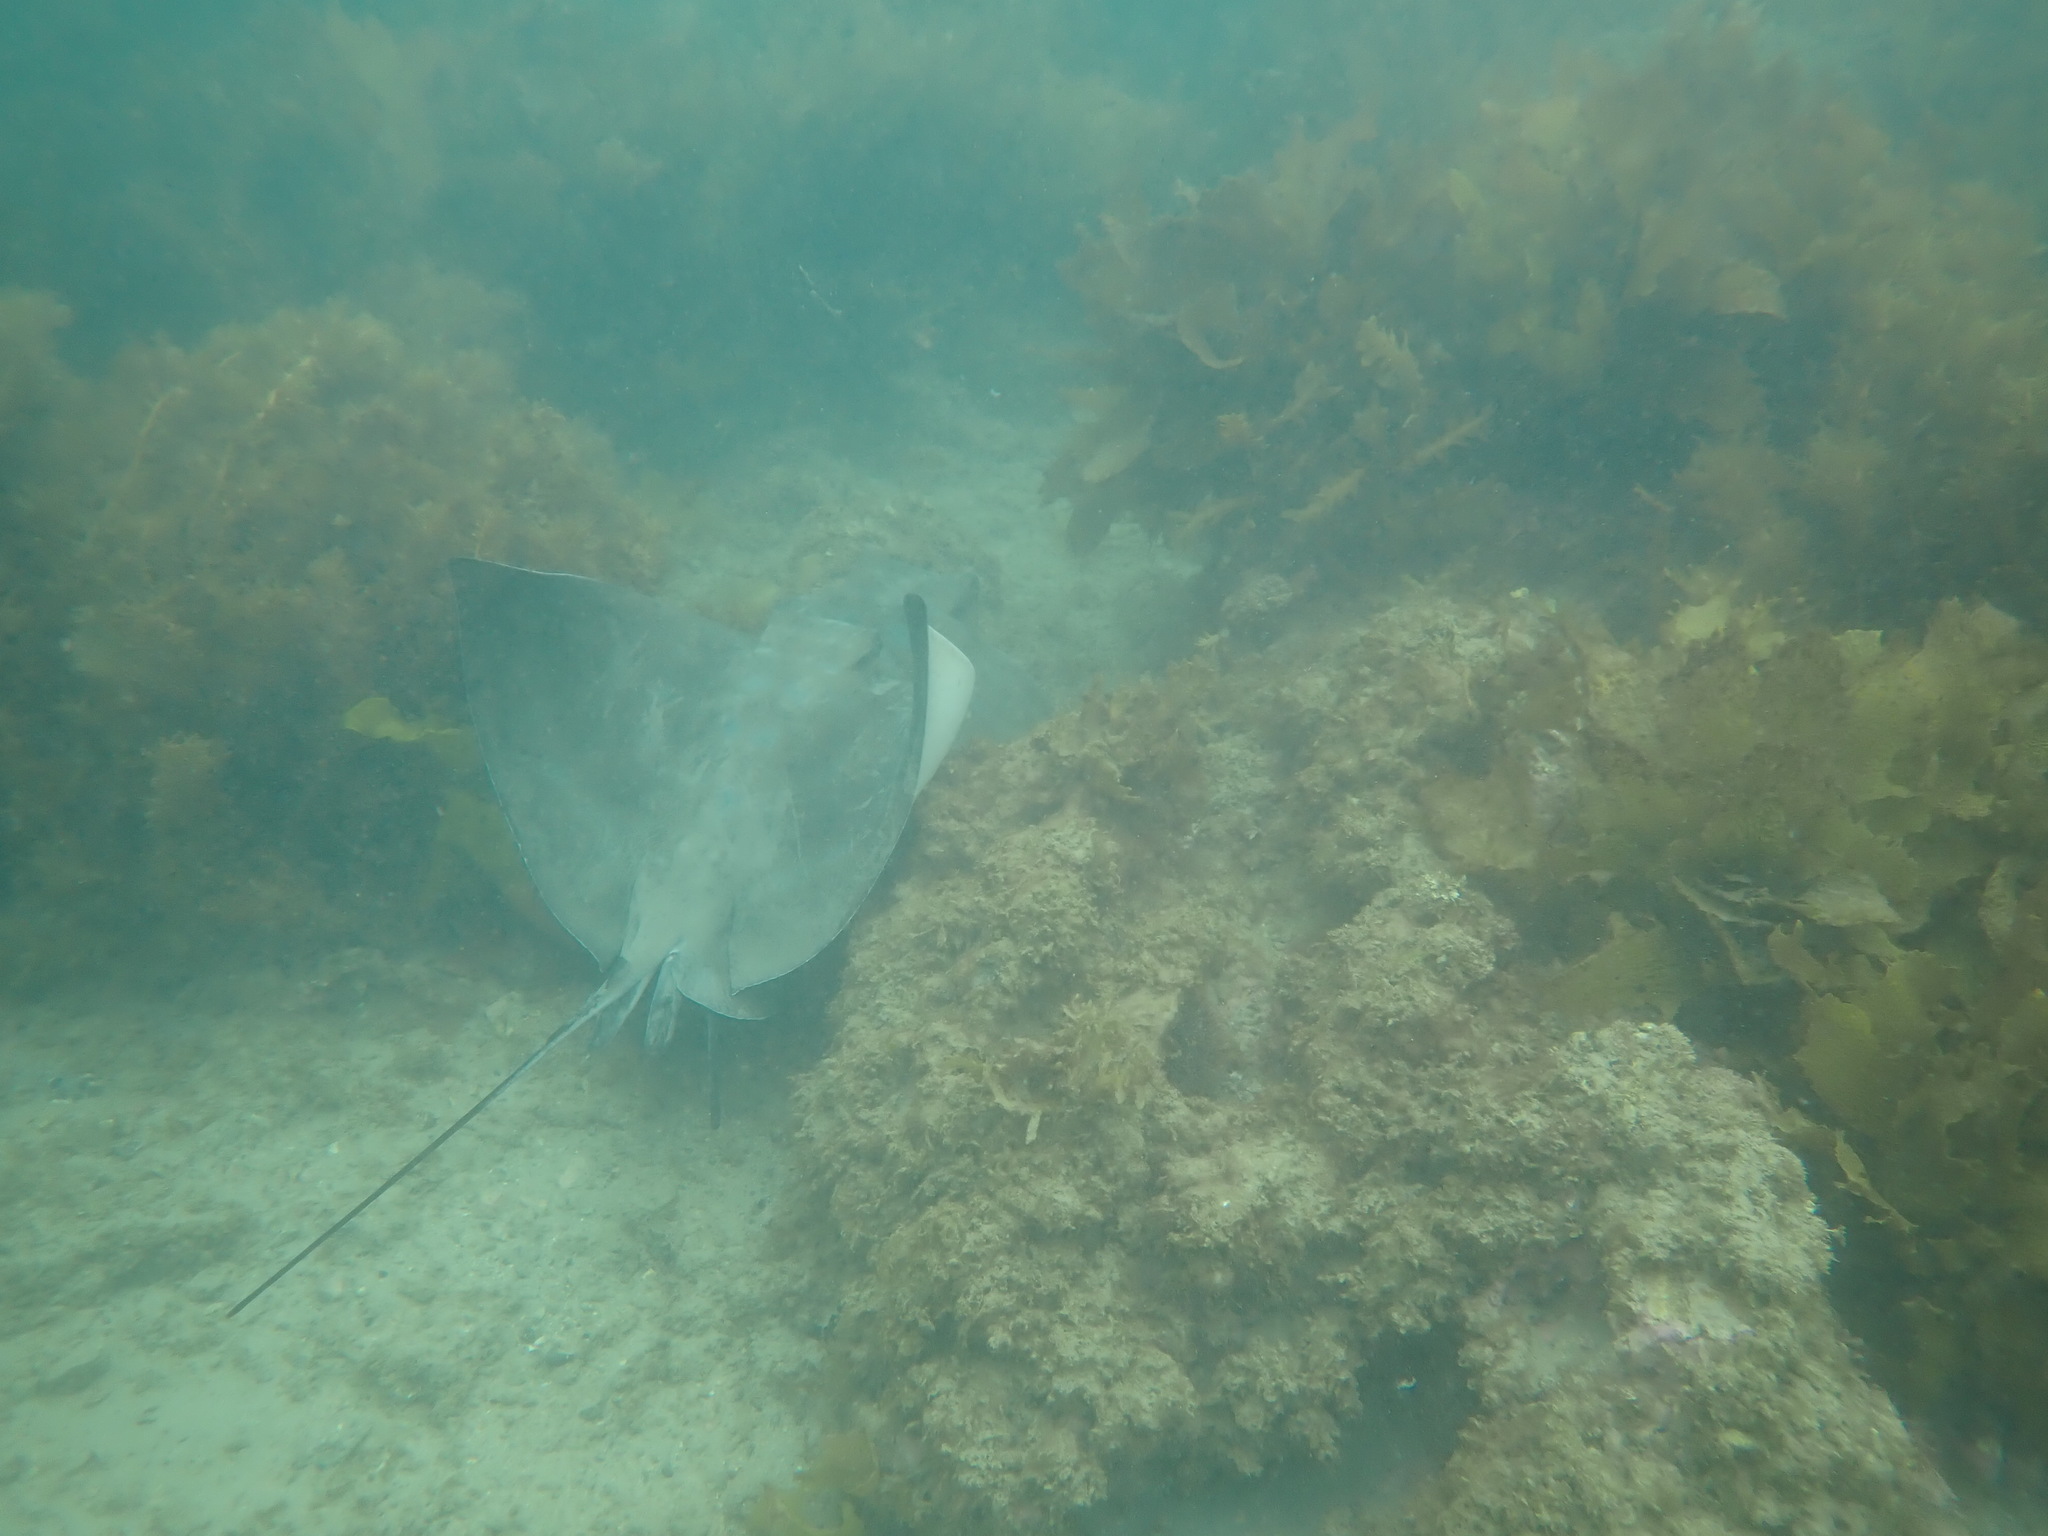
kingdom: Animalia
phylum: Chordata
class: Elasmobranchii
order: Myliobatiformes
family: Myliobatidae
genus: Myliobatis
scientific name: Myliobatis tenuicaudatus
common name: Eagle ray
